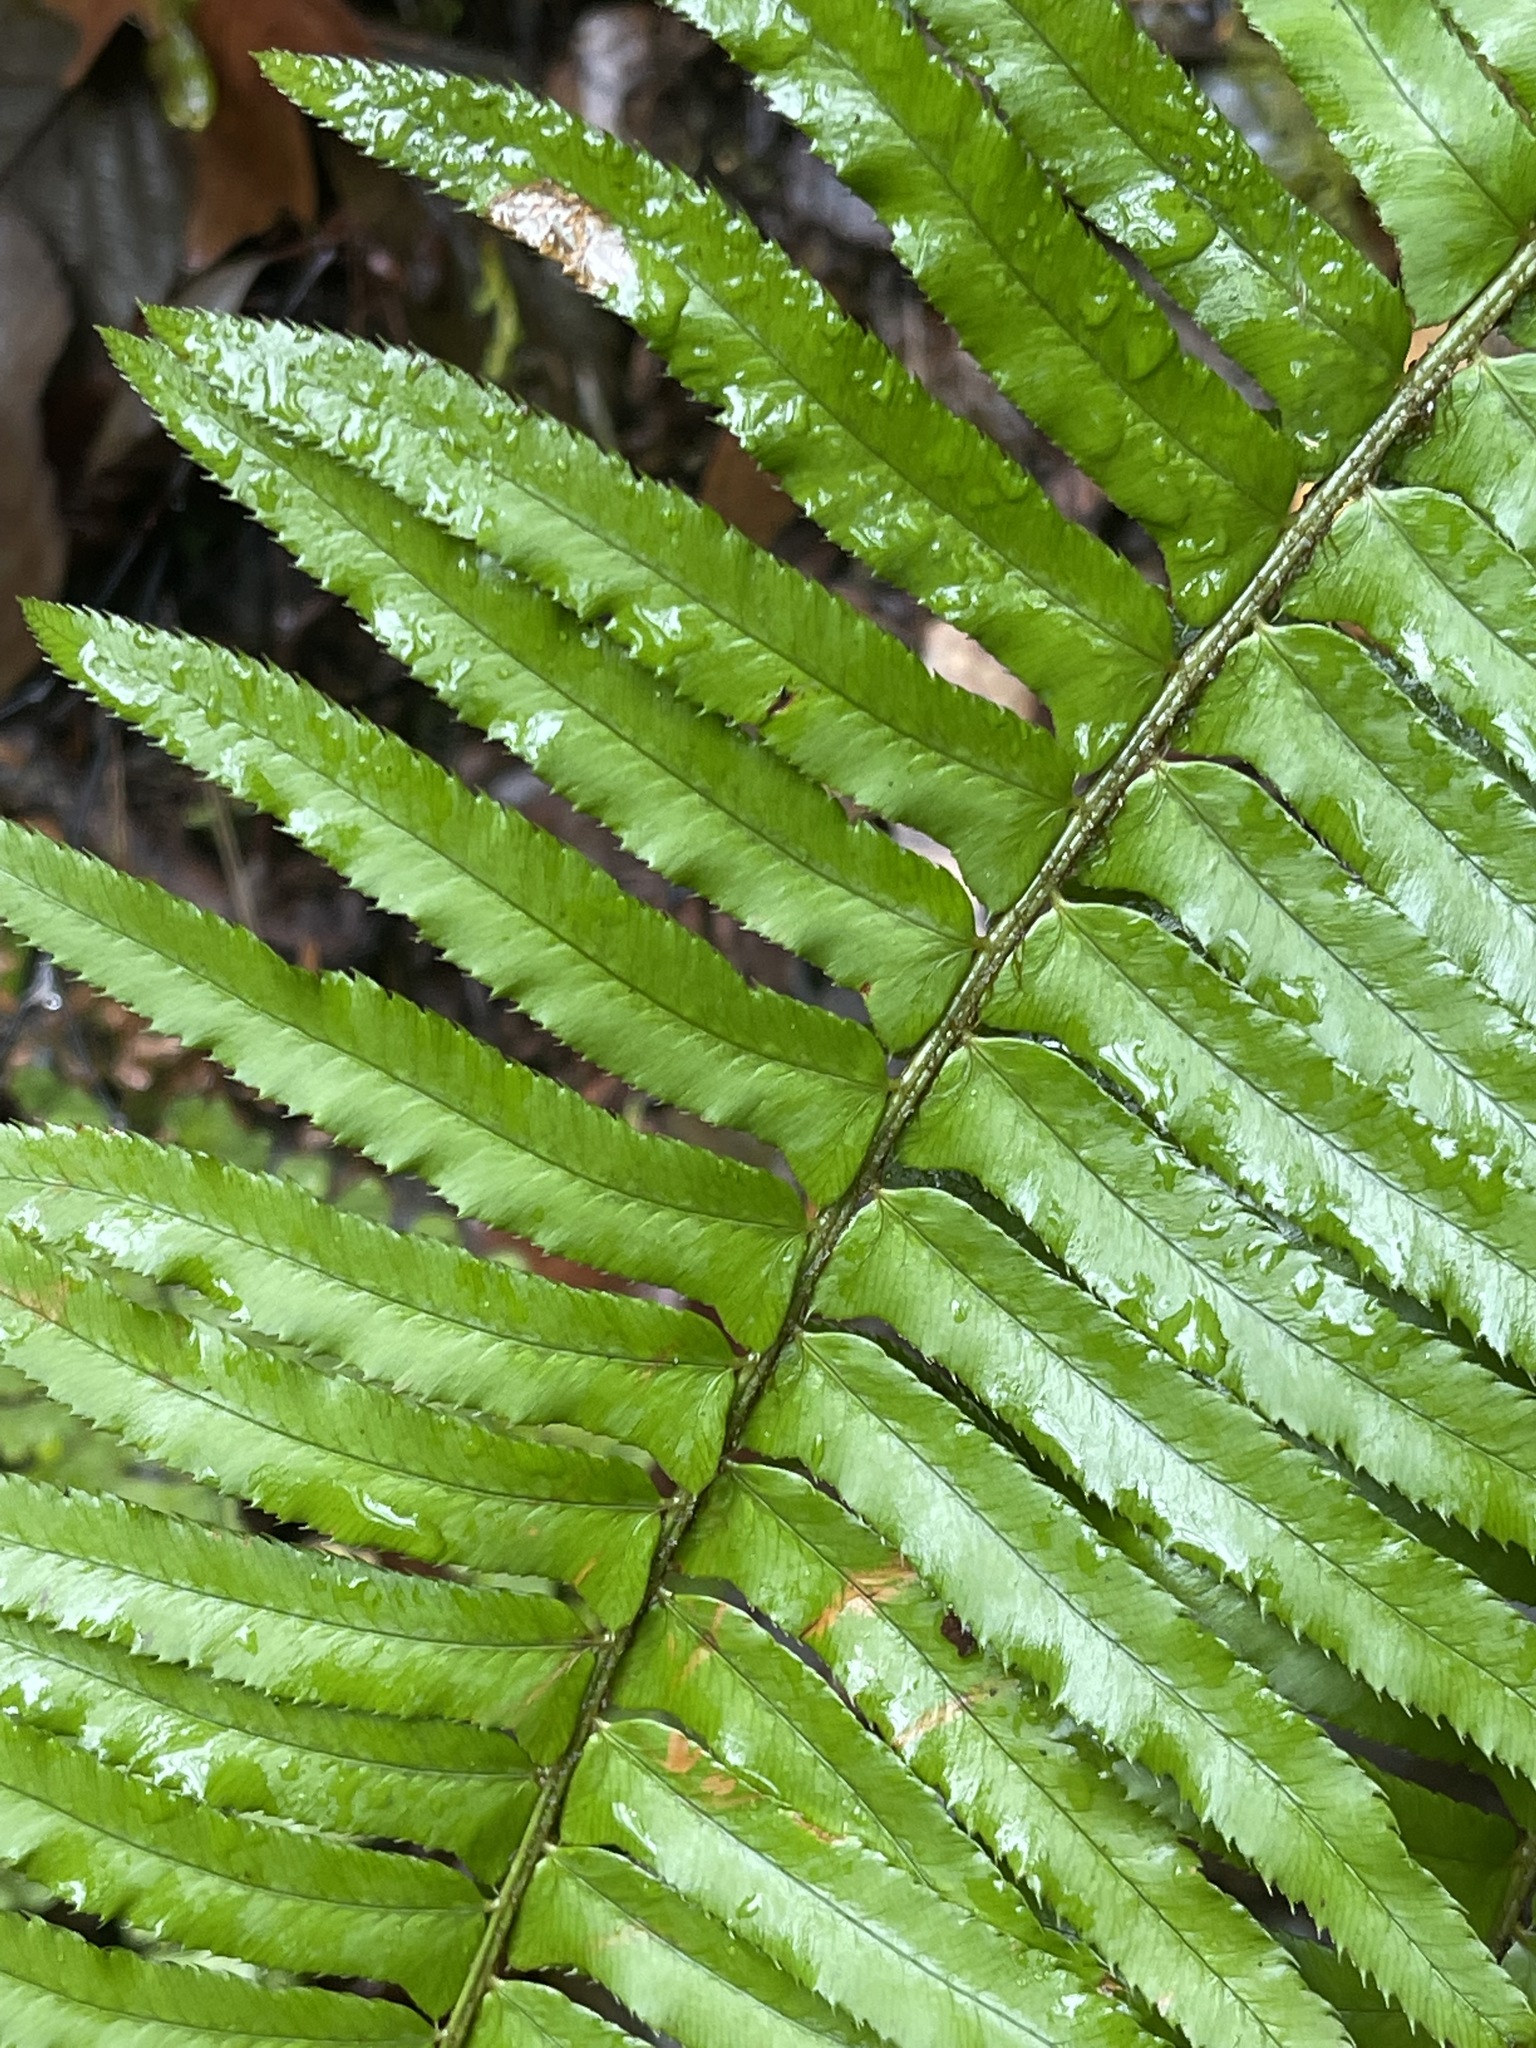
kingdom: Plantae
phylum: Tracheophyta
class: Polypodiopsida
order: Polypodiales
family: Dryopteridaceae
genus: Polystichum
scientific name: Polystichum munitum
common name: Western sword-fern
